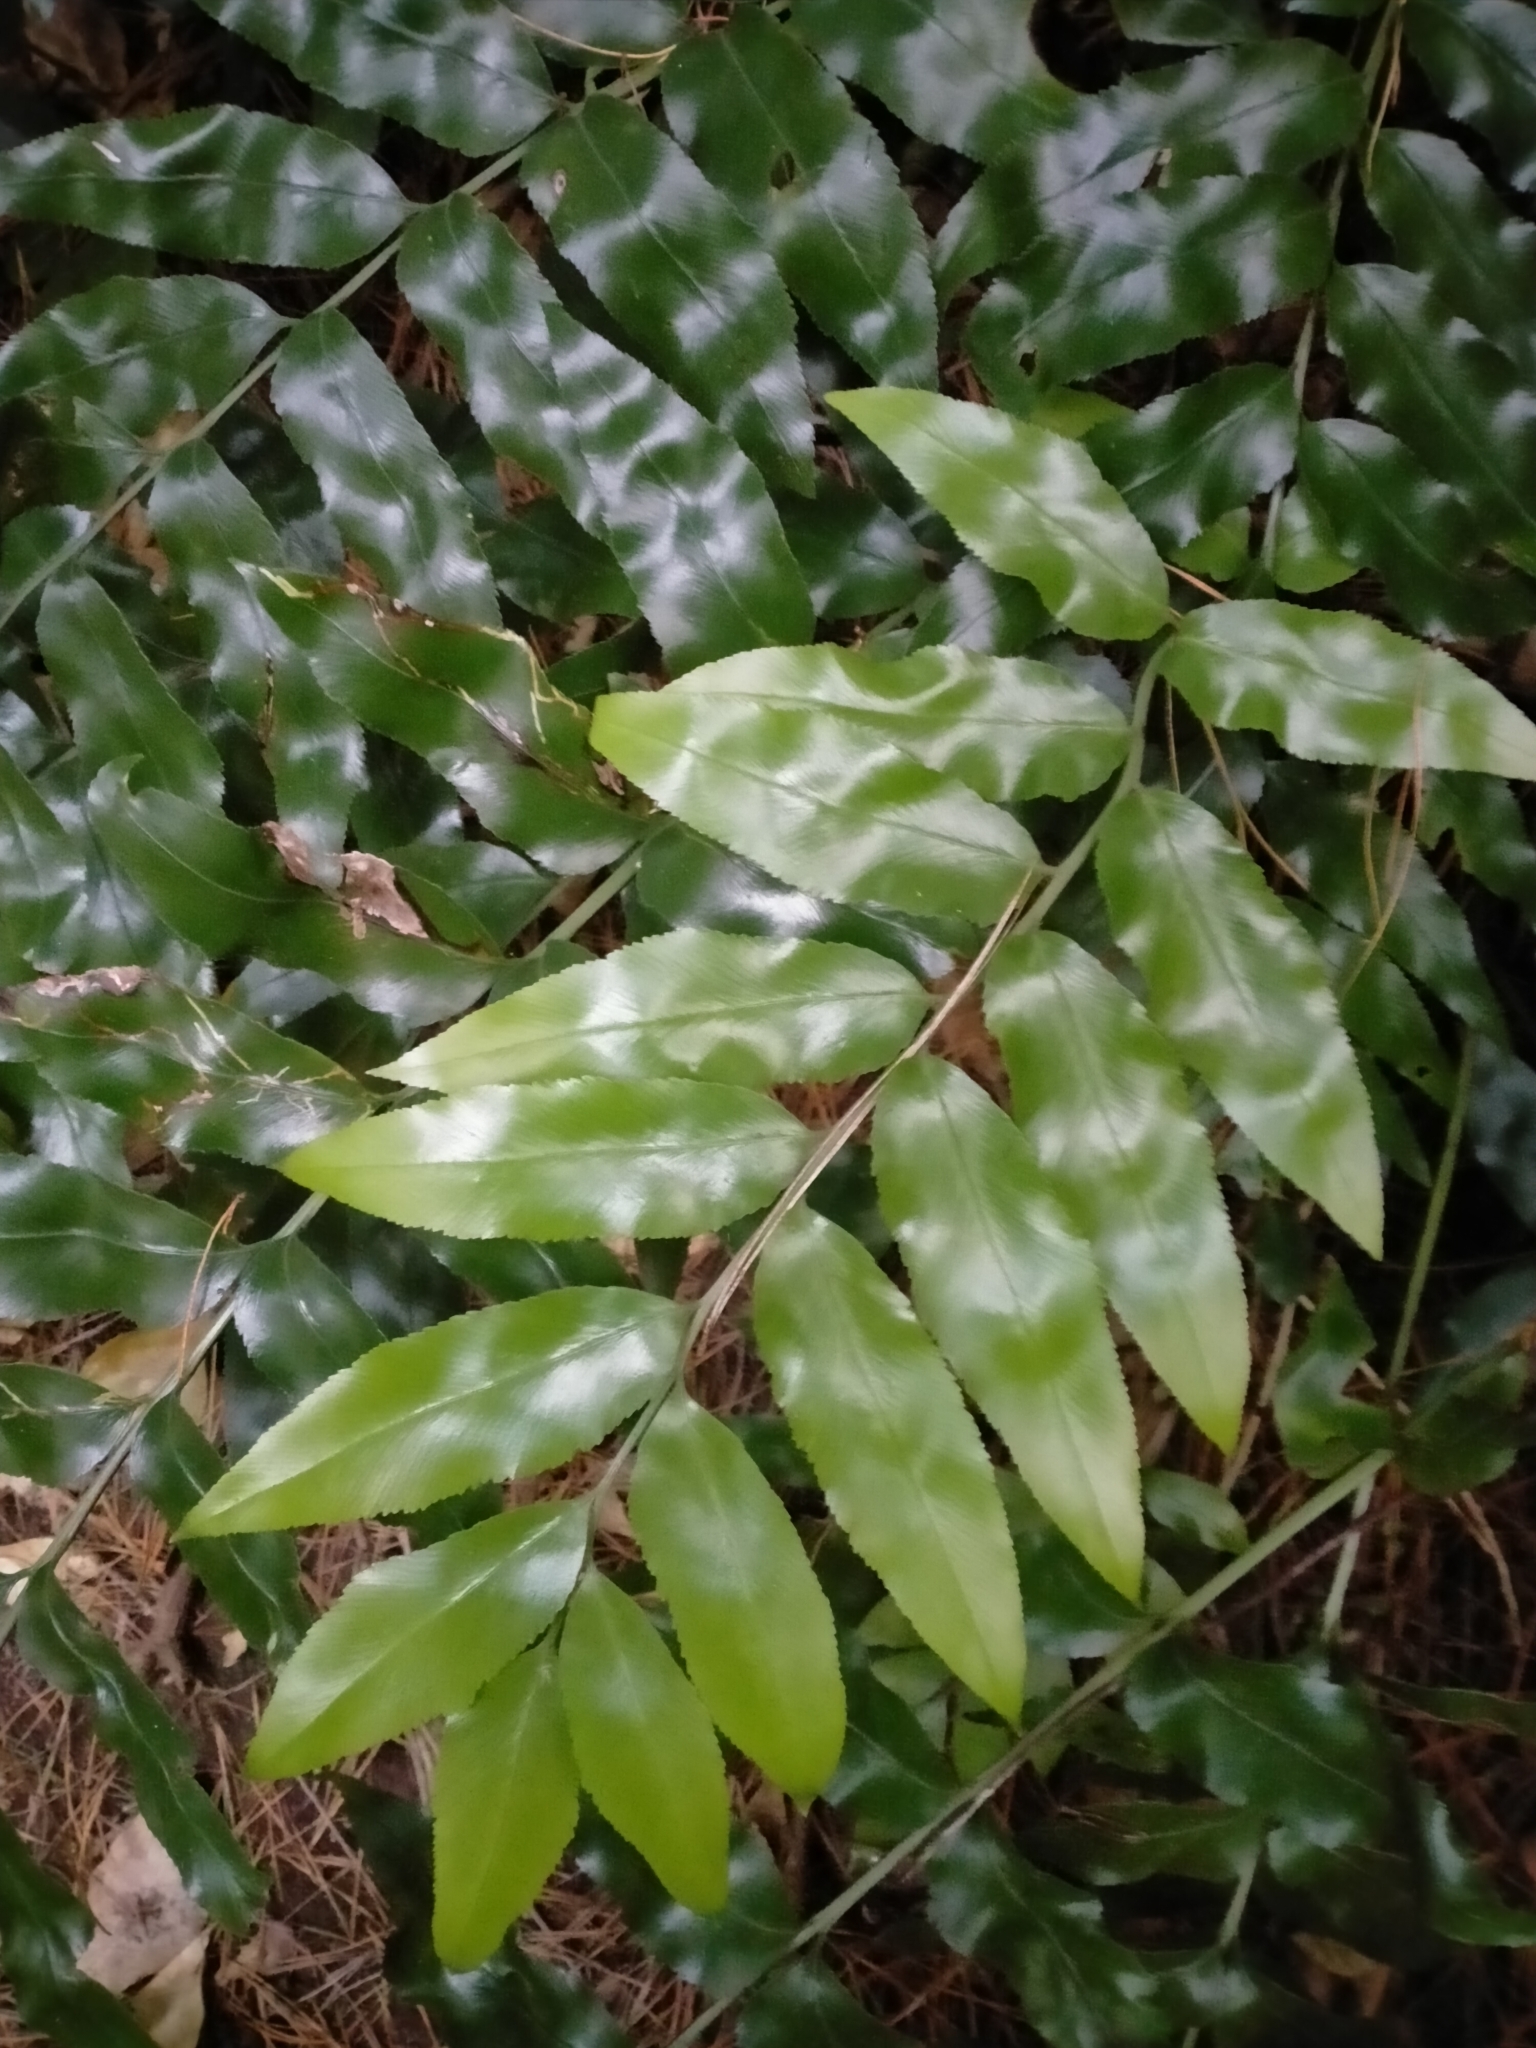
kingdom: Plantae
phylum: Tracheophyta
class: Polypodiopsida
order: Polypodiales
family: Aspleniaceae
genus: Asplenium
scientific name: Asplenium oblongifolium
